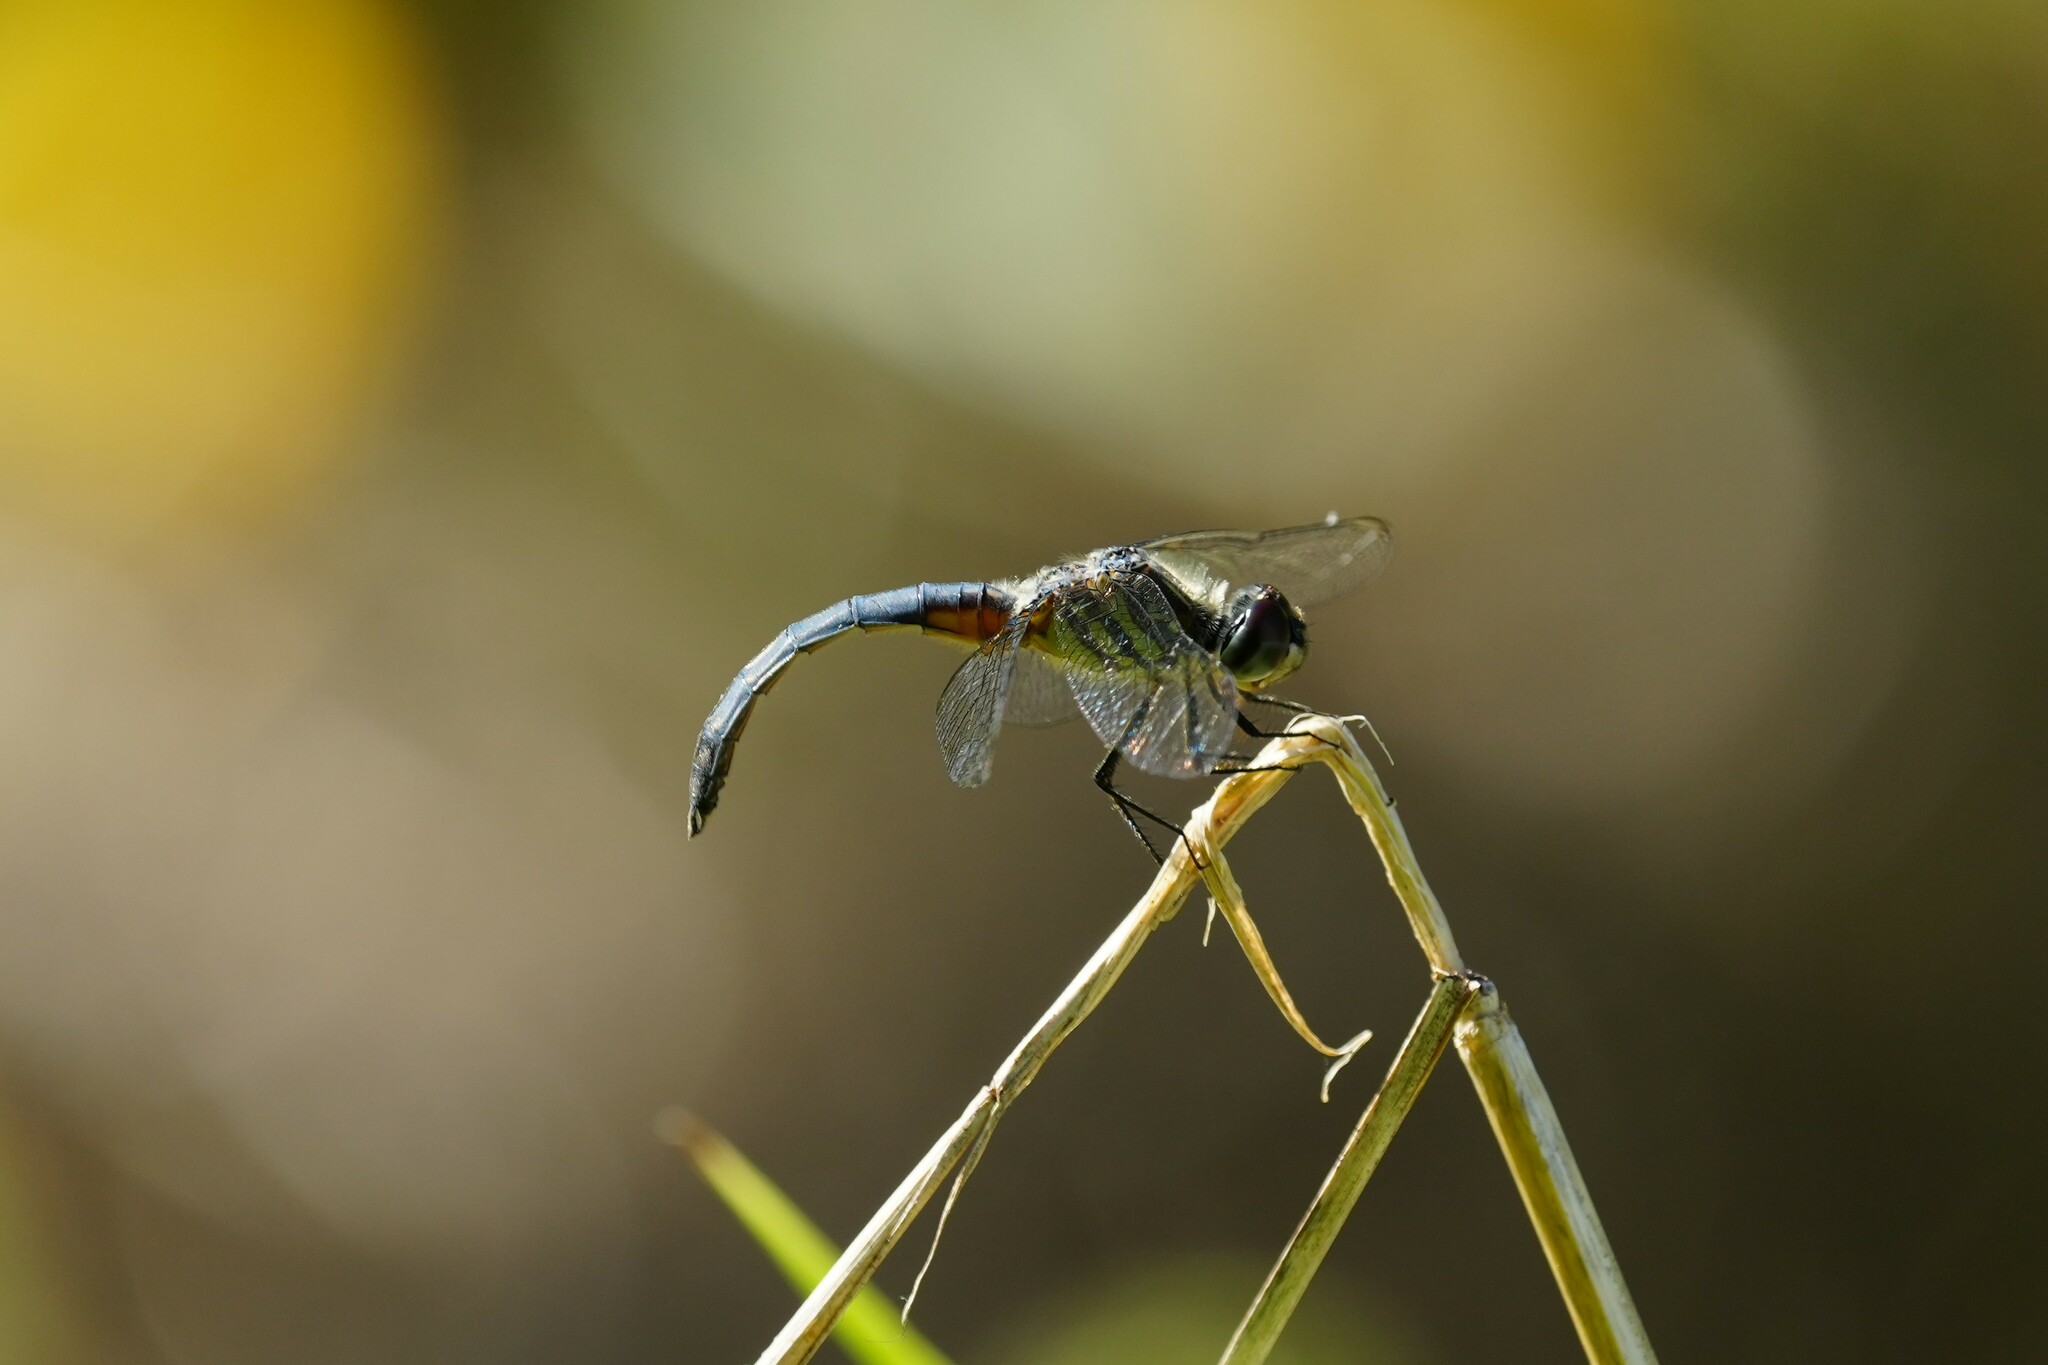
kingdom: Animalia
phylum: Arthropoda
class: Insecta
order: Odonata
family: Libellulidae
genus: Pachydiplax
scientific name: Pachydiplax longipennis
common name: Blue dasher
